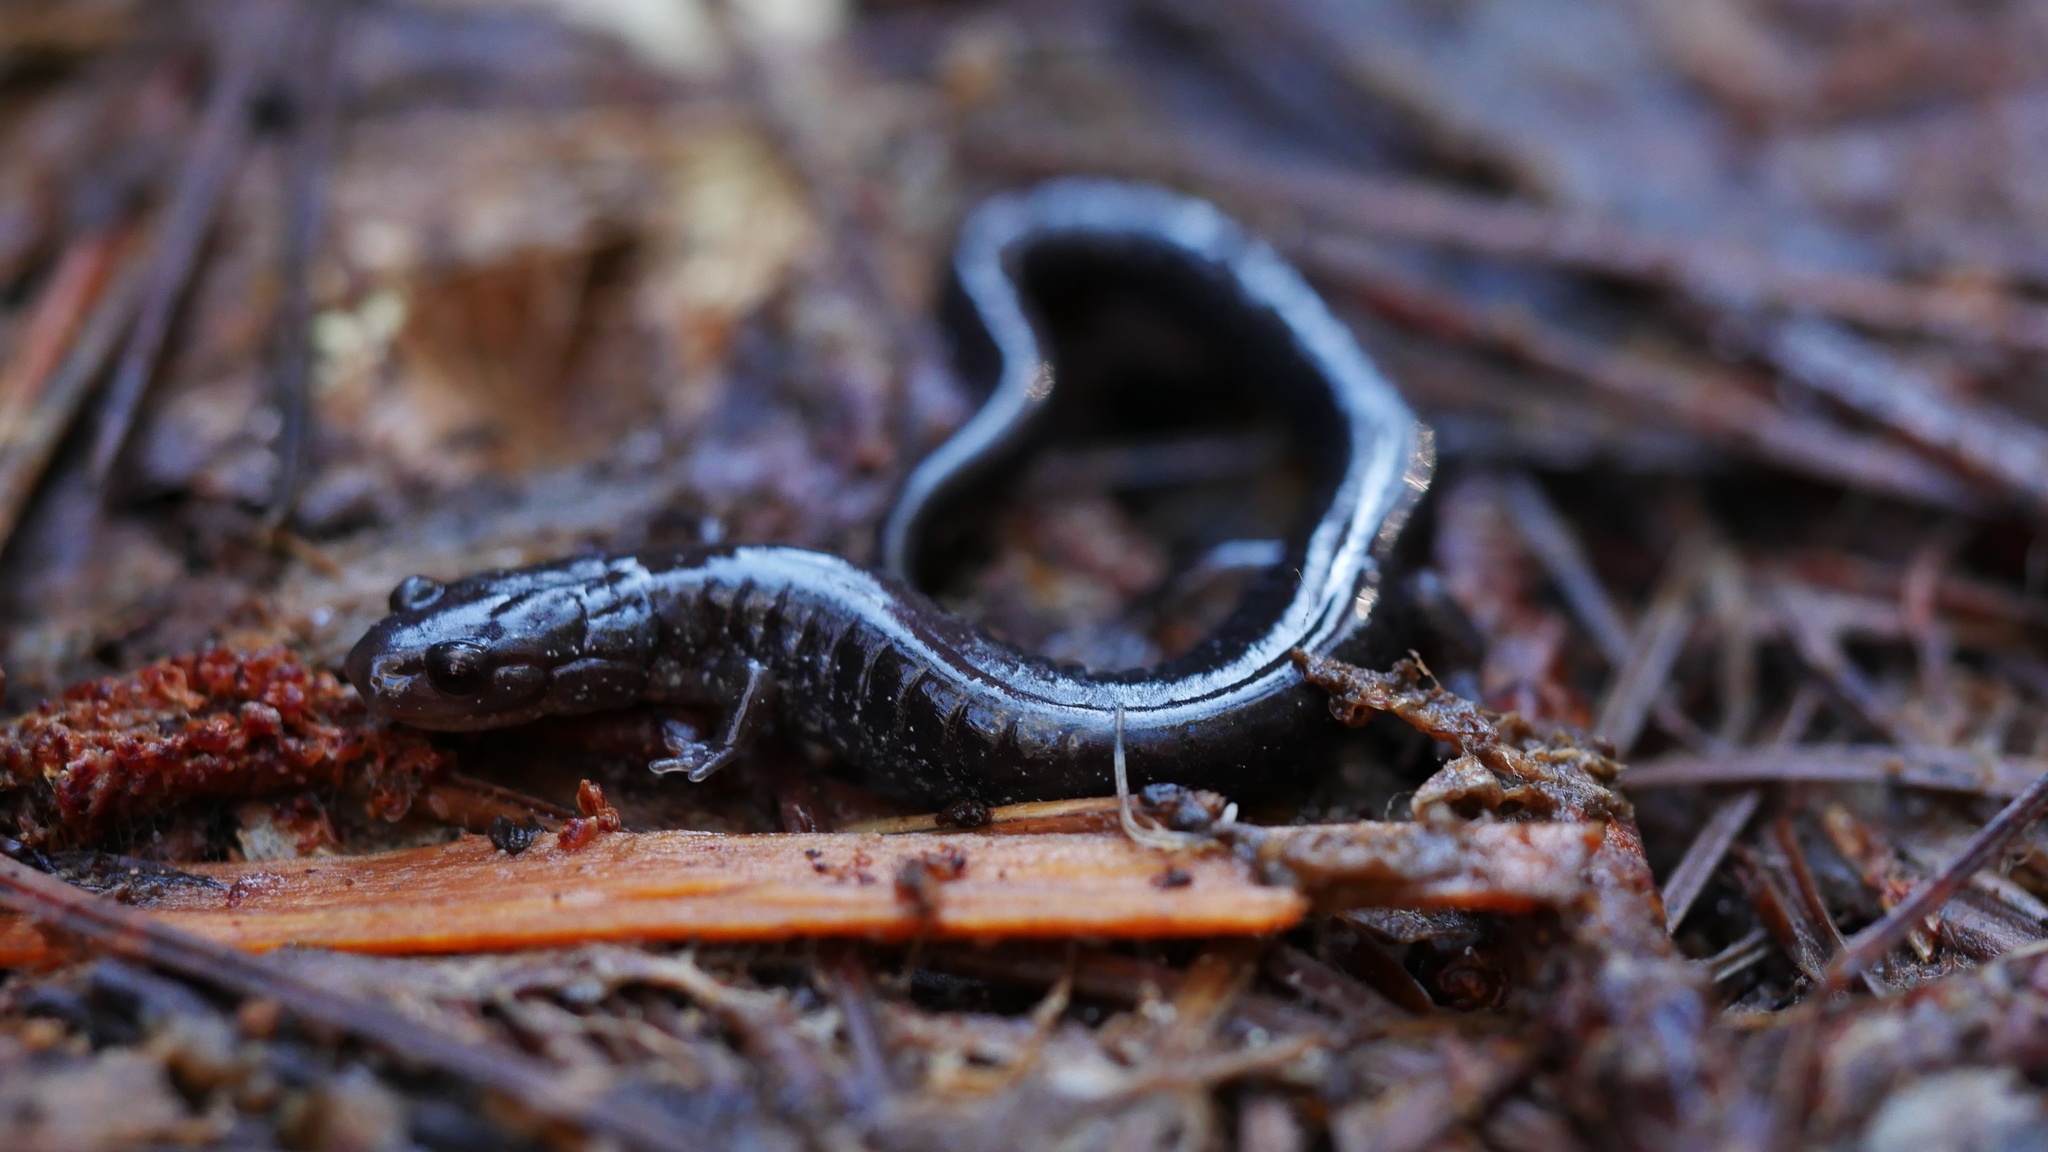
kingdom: Animalia
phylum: Chordata
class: Amphibia
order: Caudata
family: Plethodontidae
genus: Plethodon
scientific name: Plethodon cinereus
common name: Redback salamander
